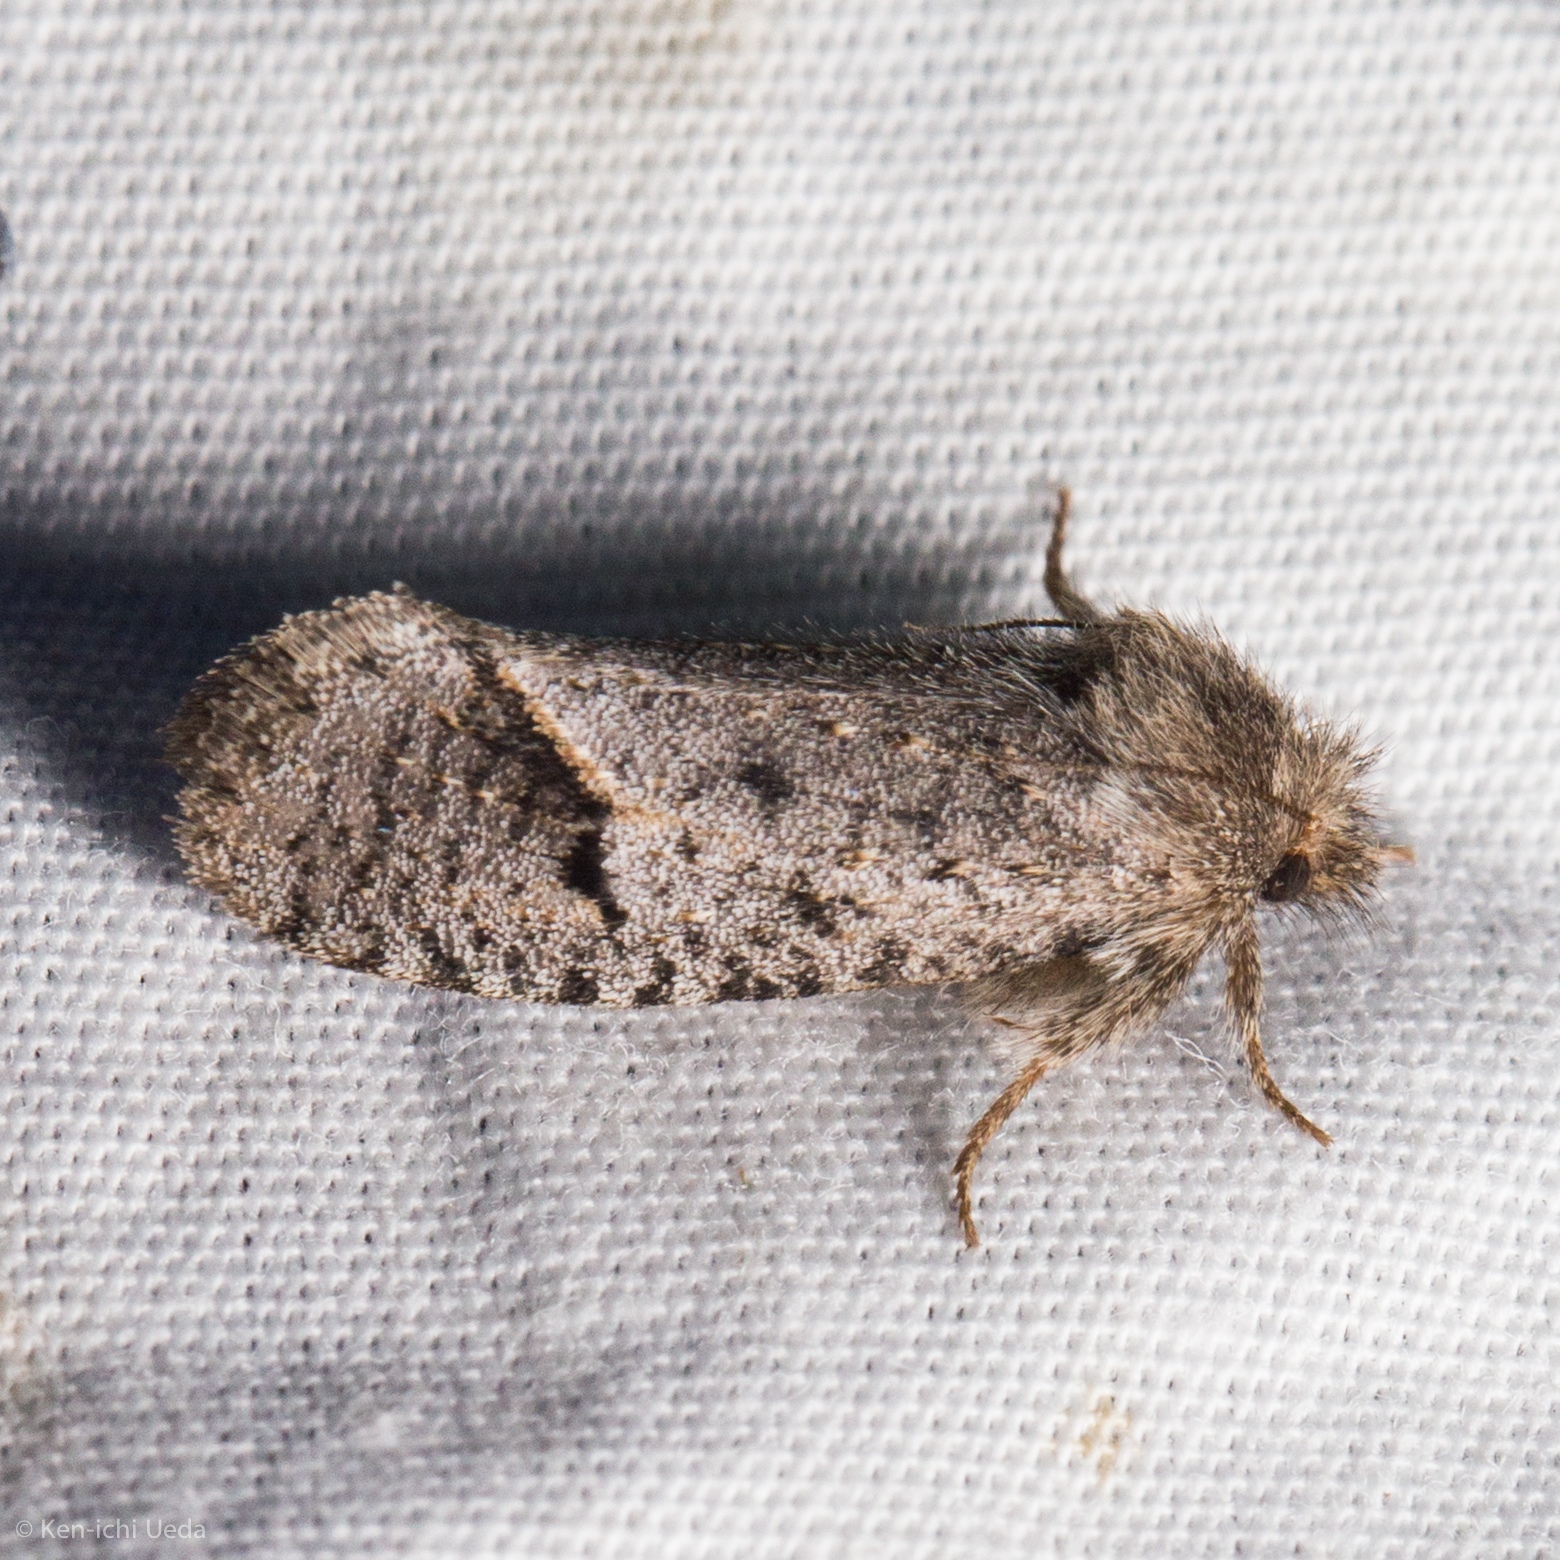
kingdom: Animalia
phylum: Arthropoda
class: Insecta
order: Lepidoptera
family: Tineidae
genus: Acrolophus
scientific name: Acrolophus filicornis
